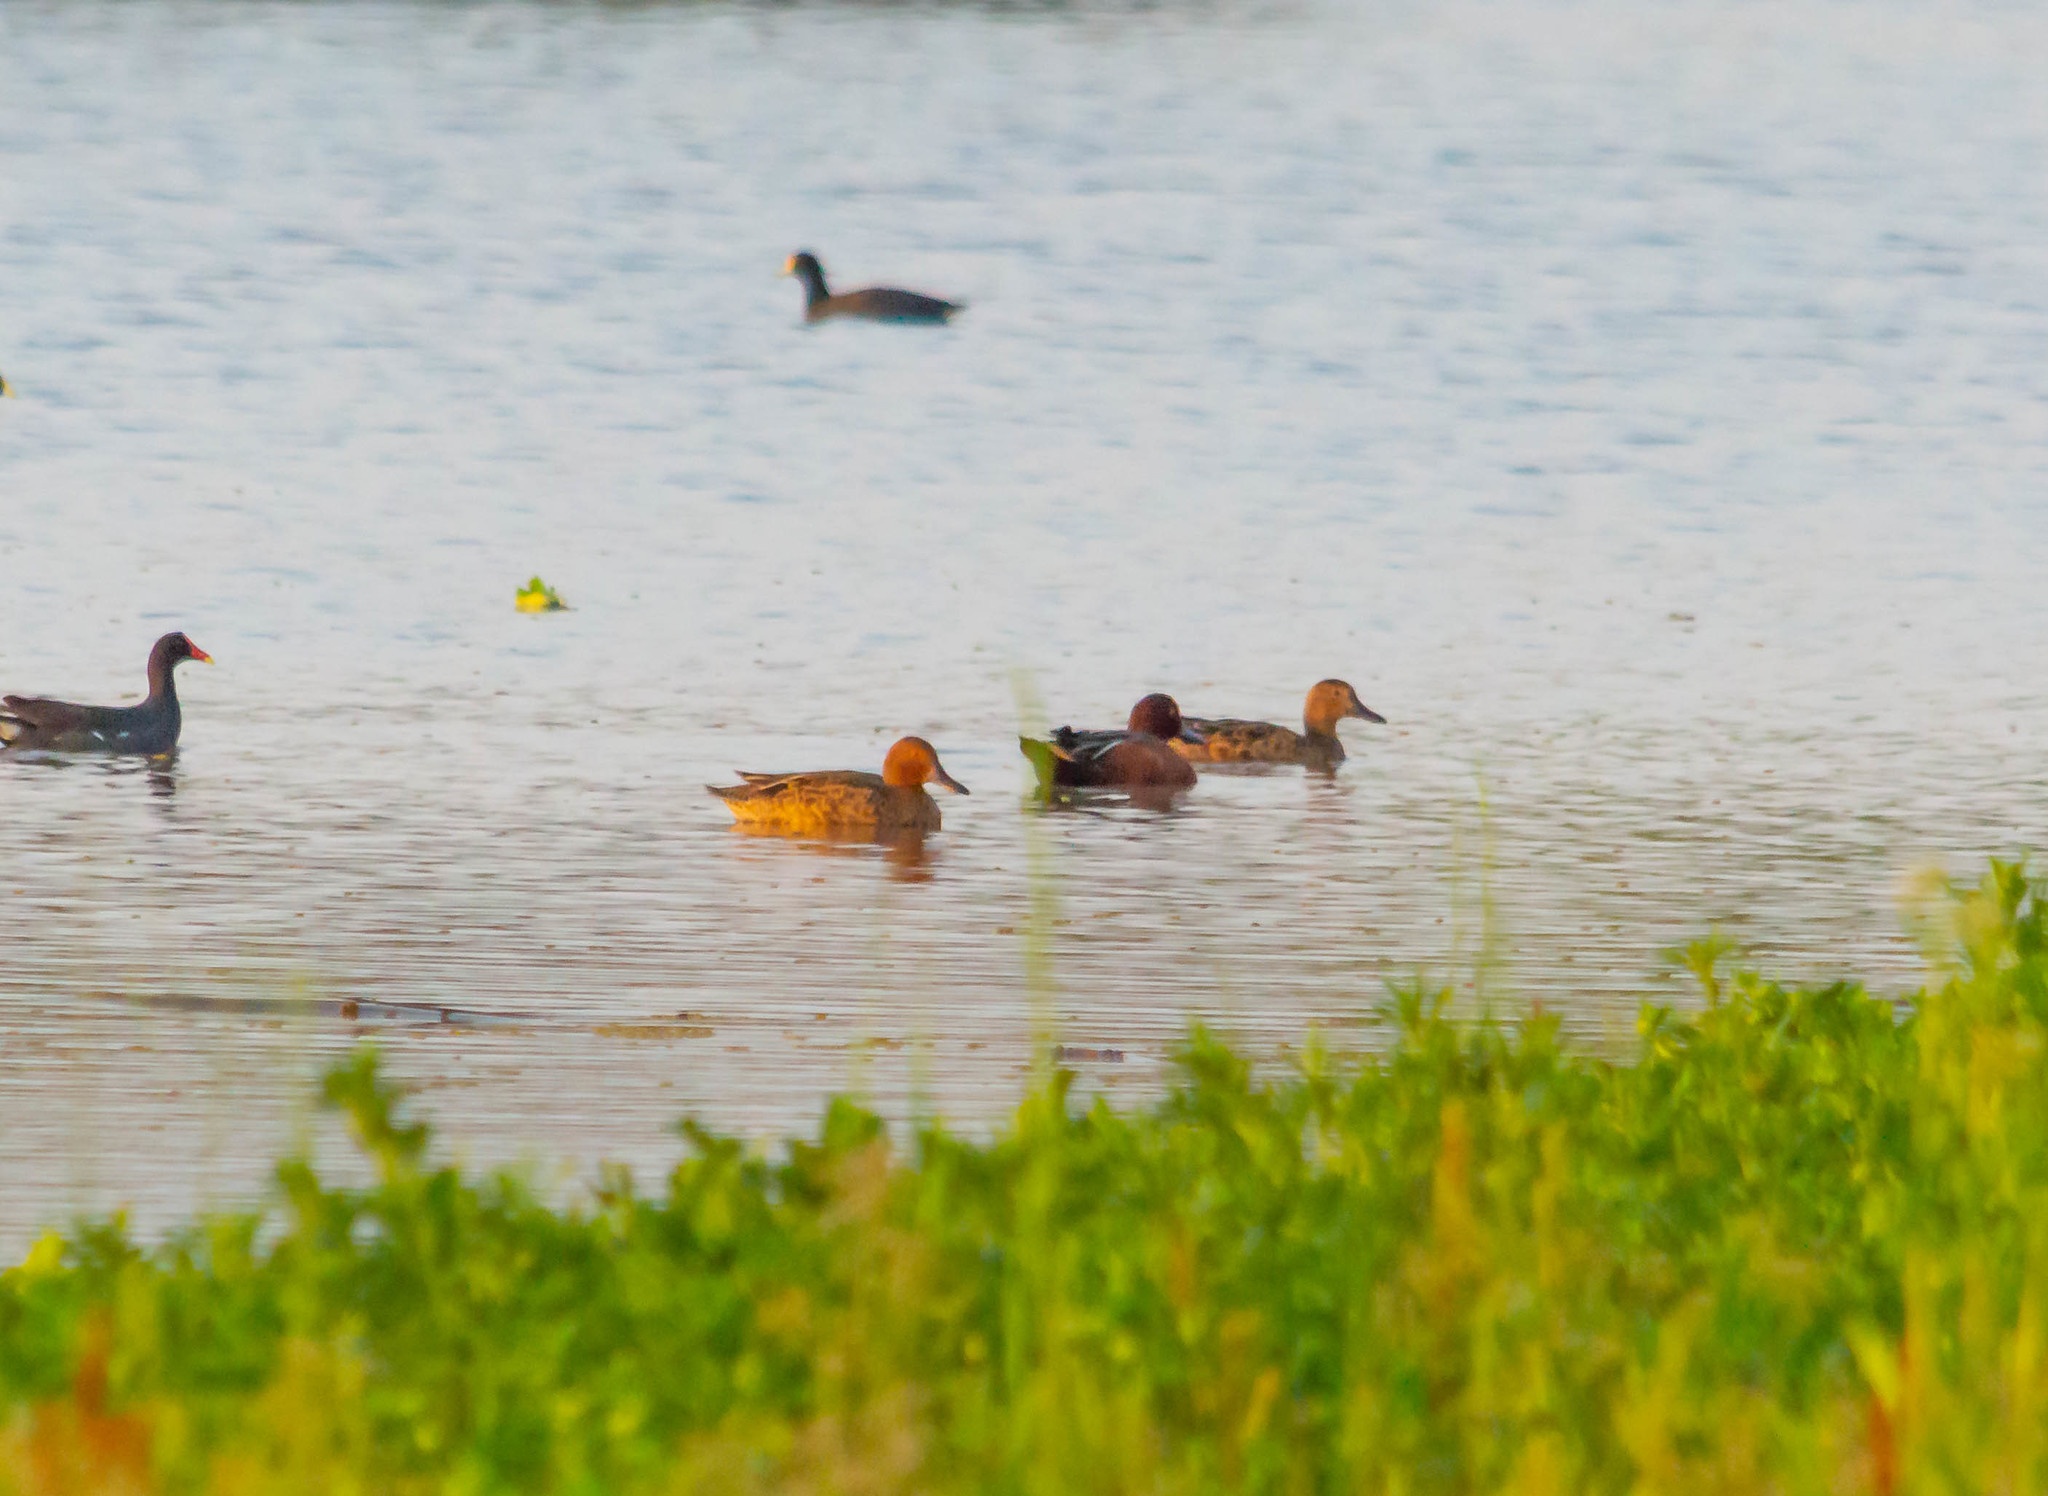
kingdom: Animalia
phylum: Chordata
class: Aves
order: Anseriformes
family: Anatidae
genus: Spatula
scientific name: Spatula cyanoptera
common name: Cinnamon teal
